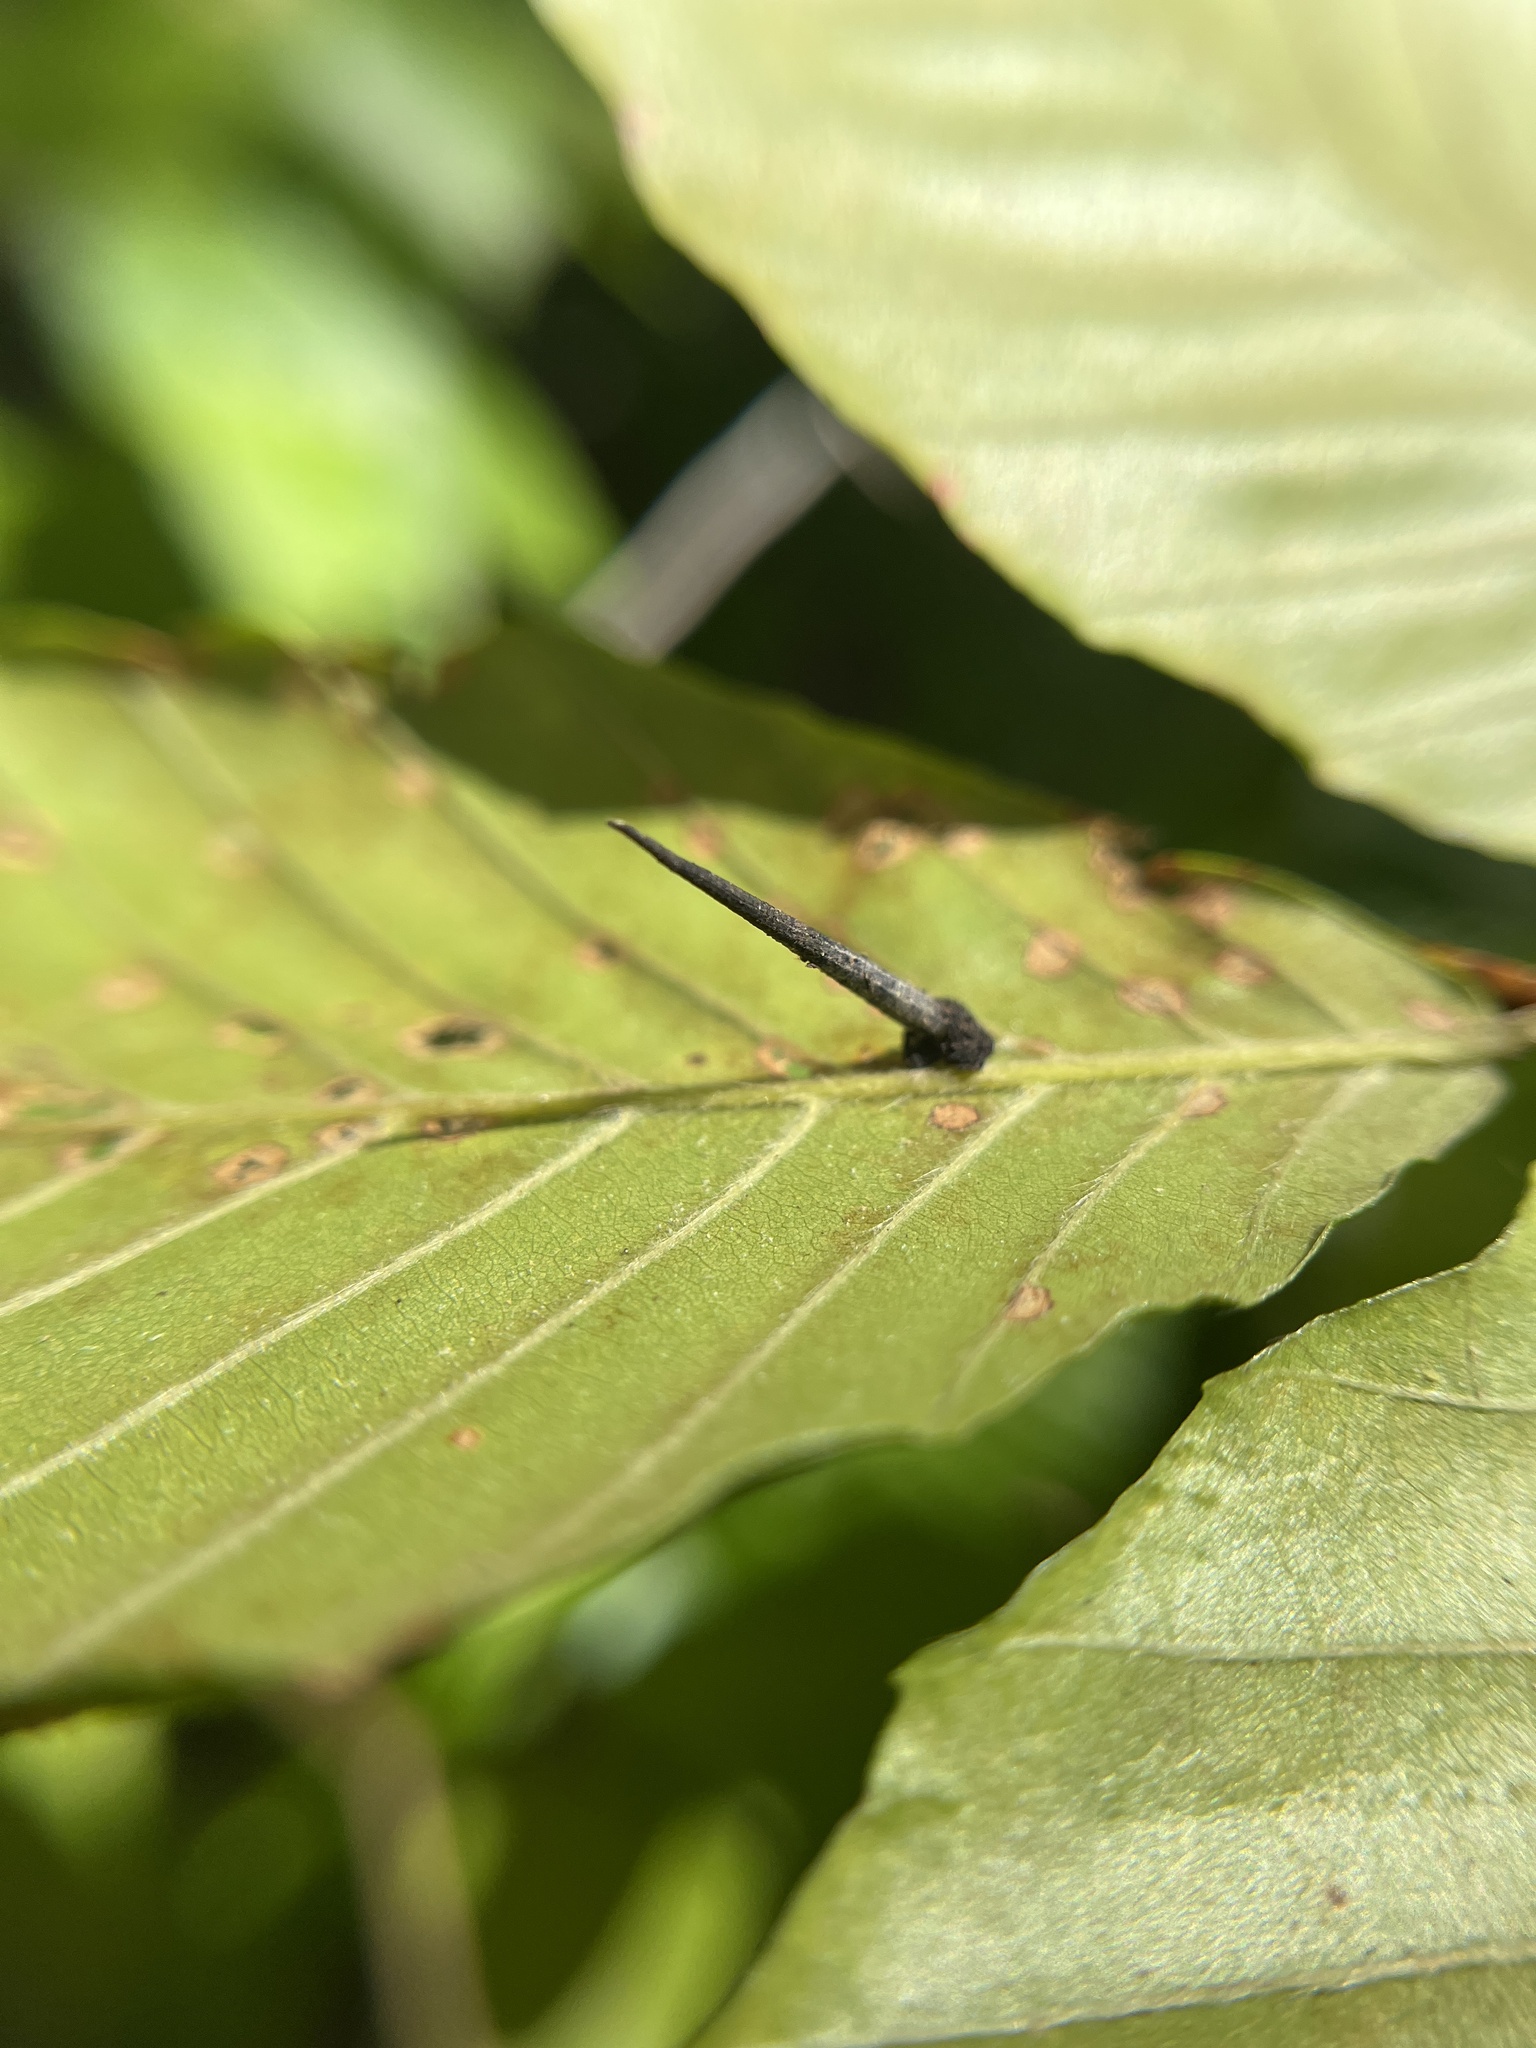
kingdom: Animalia
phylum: Arthropoda
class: Insecta
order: Lepidoptera
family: Coleophoridae
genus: Homaledra
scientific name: Homaledra octagonella
